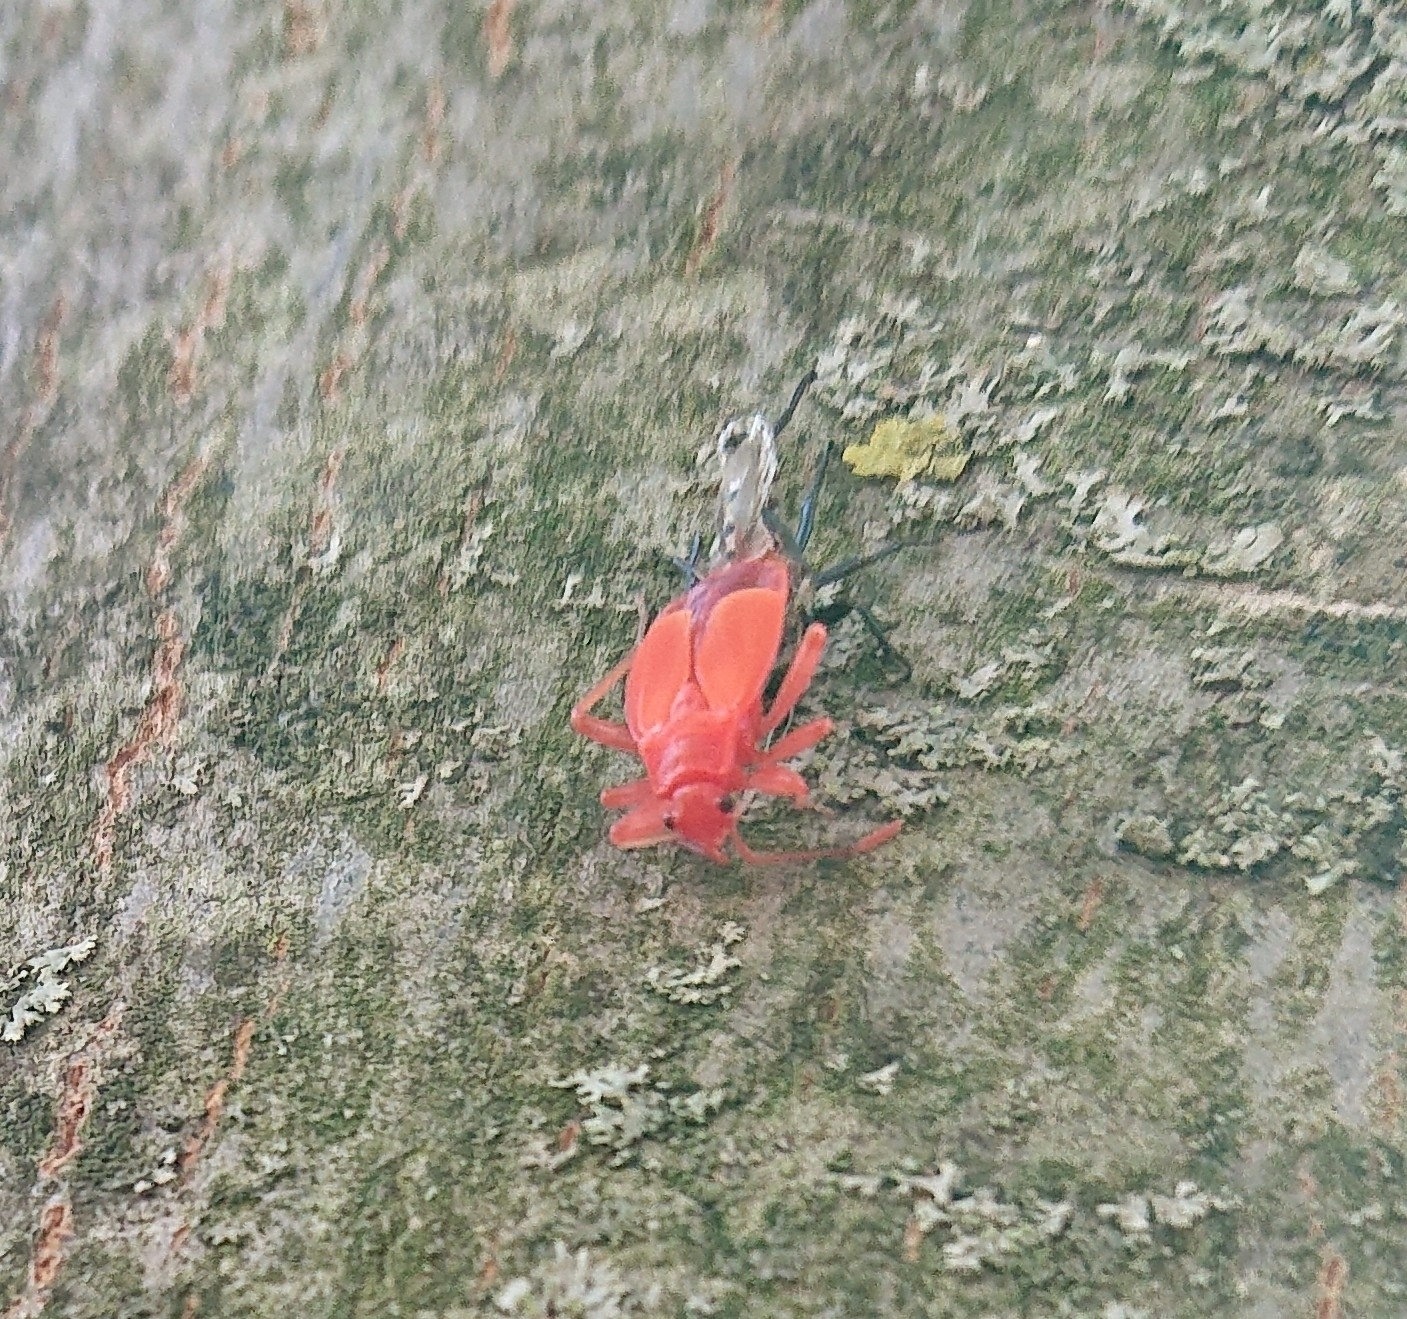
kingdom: Animalia
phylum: Arthropoda
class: Insecta
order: Hemiptera
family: Pyrrhocoridae
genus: Pyrrhocoris
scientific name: Pyrrhocoris apterus
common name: Firebug
